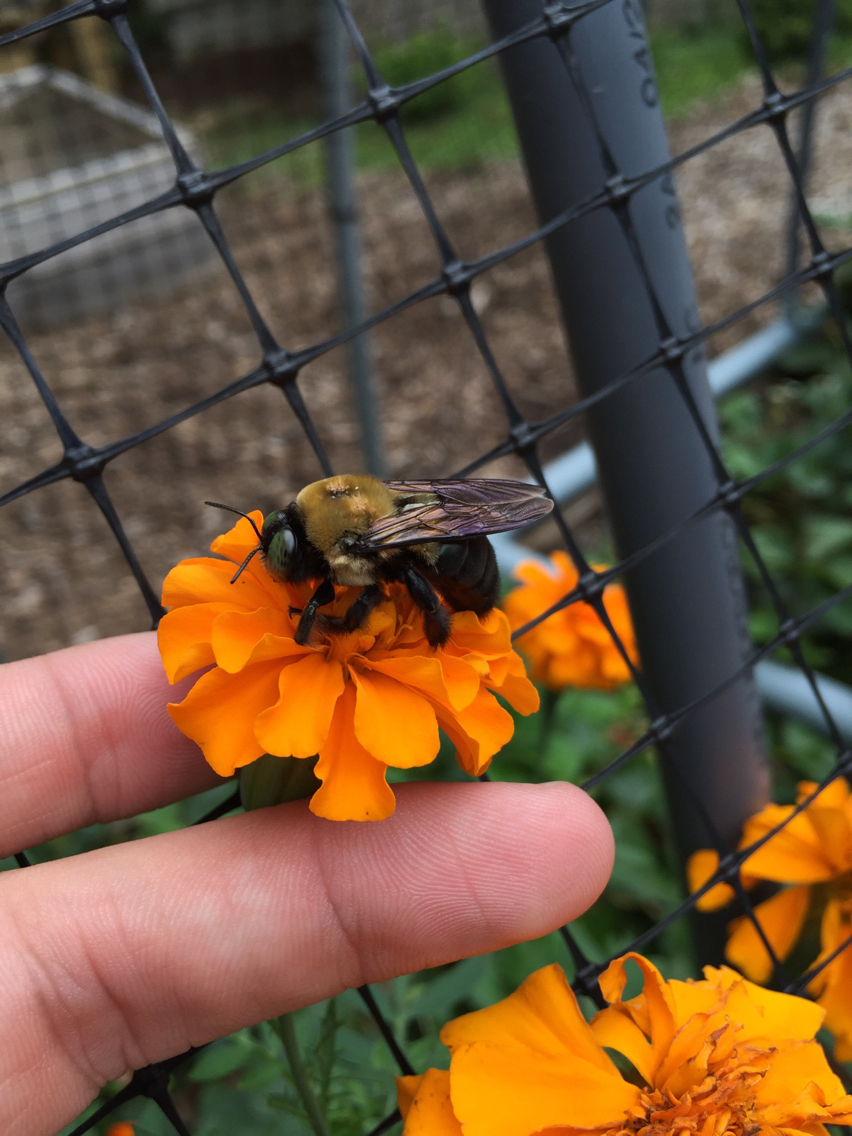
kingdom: Animalia
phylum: Arthropoda
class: Insecta
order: Hymenoptera
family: Apidae
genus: Xylocopa
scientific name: Xylocopa virginica
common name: Carpenter bee
